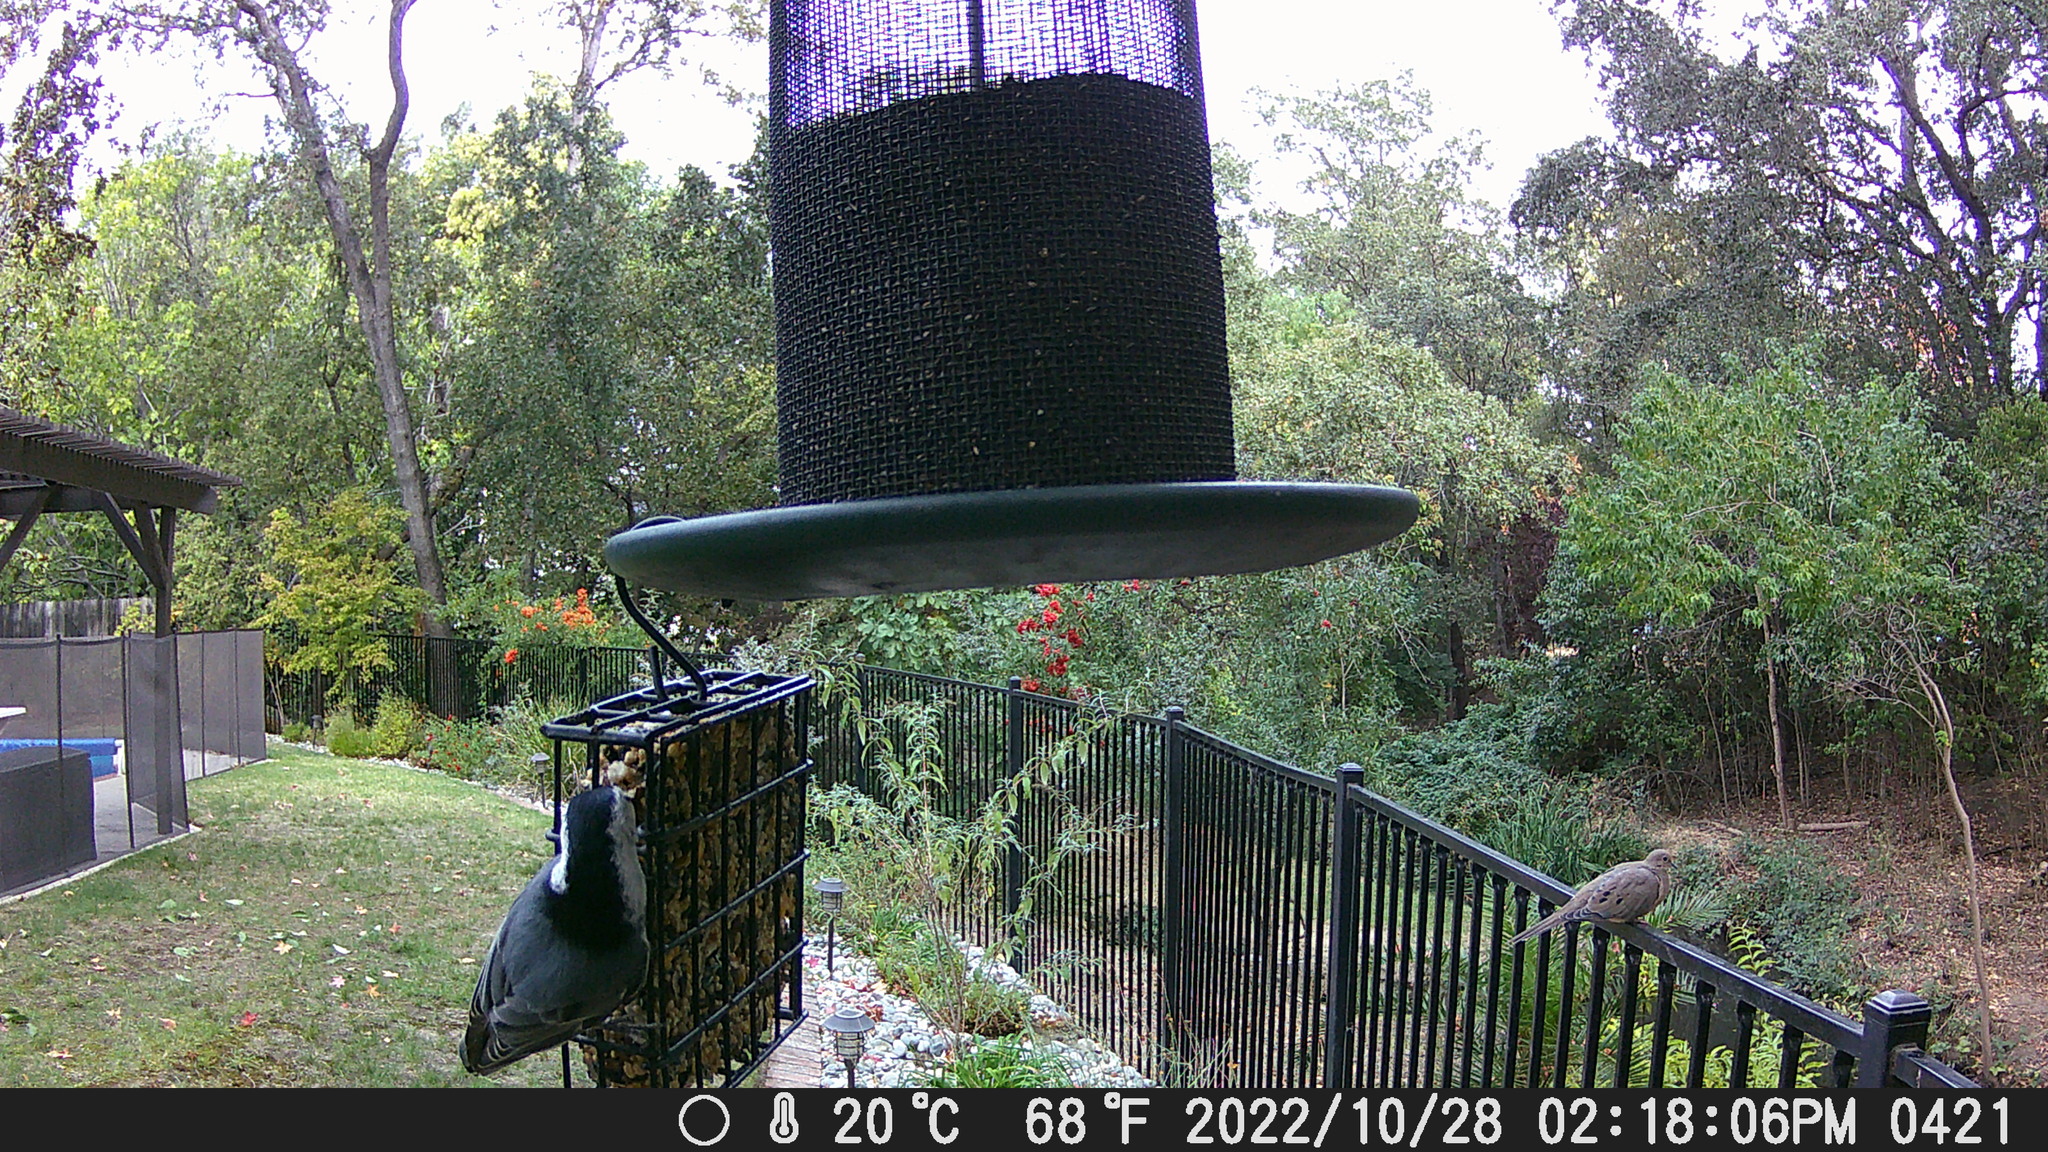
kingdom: Animalia
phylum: Chordata
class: Aves
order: Passeriformes
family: Sittidae
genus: Sitta
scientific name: Sitta carolinensis
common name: White-breasted nuthatch
